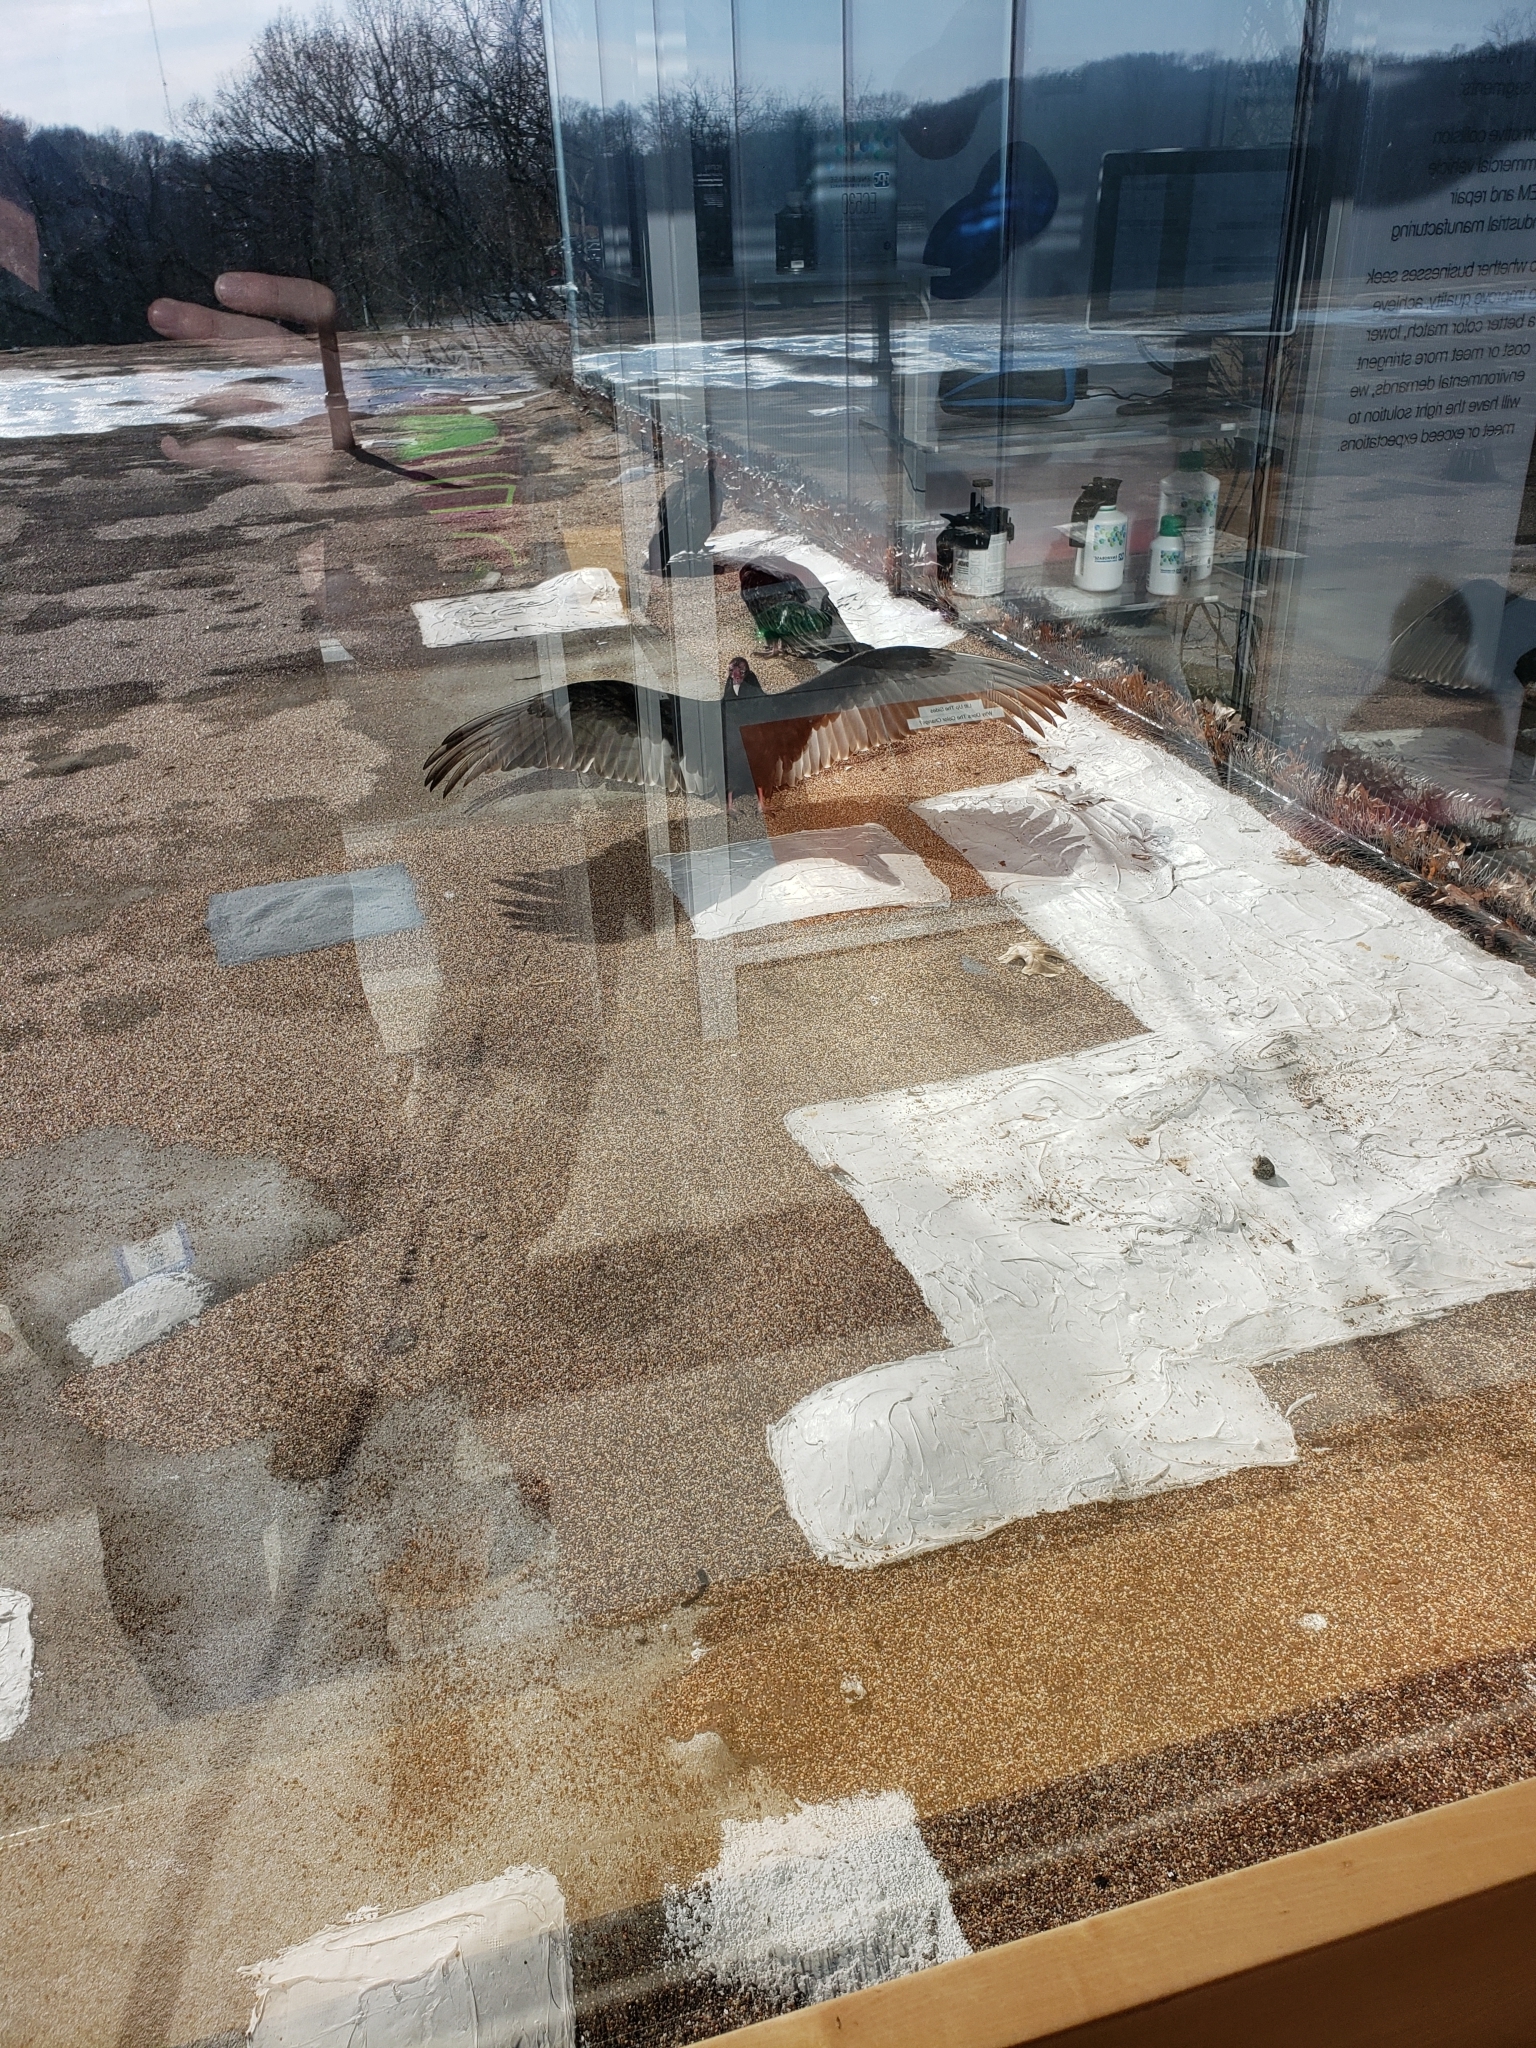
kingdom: Animalia
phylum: Chordata
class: Aves
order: Accipitriformes
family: Cathartidae
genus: Cathartes
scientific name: Cathartes aura
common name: Turkey vulture
